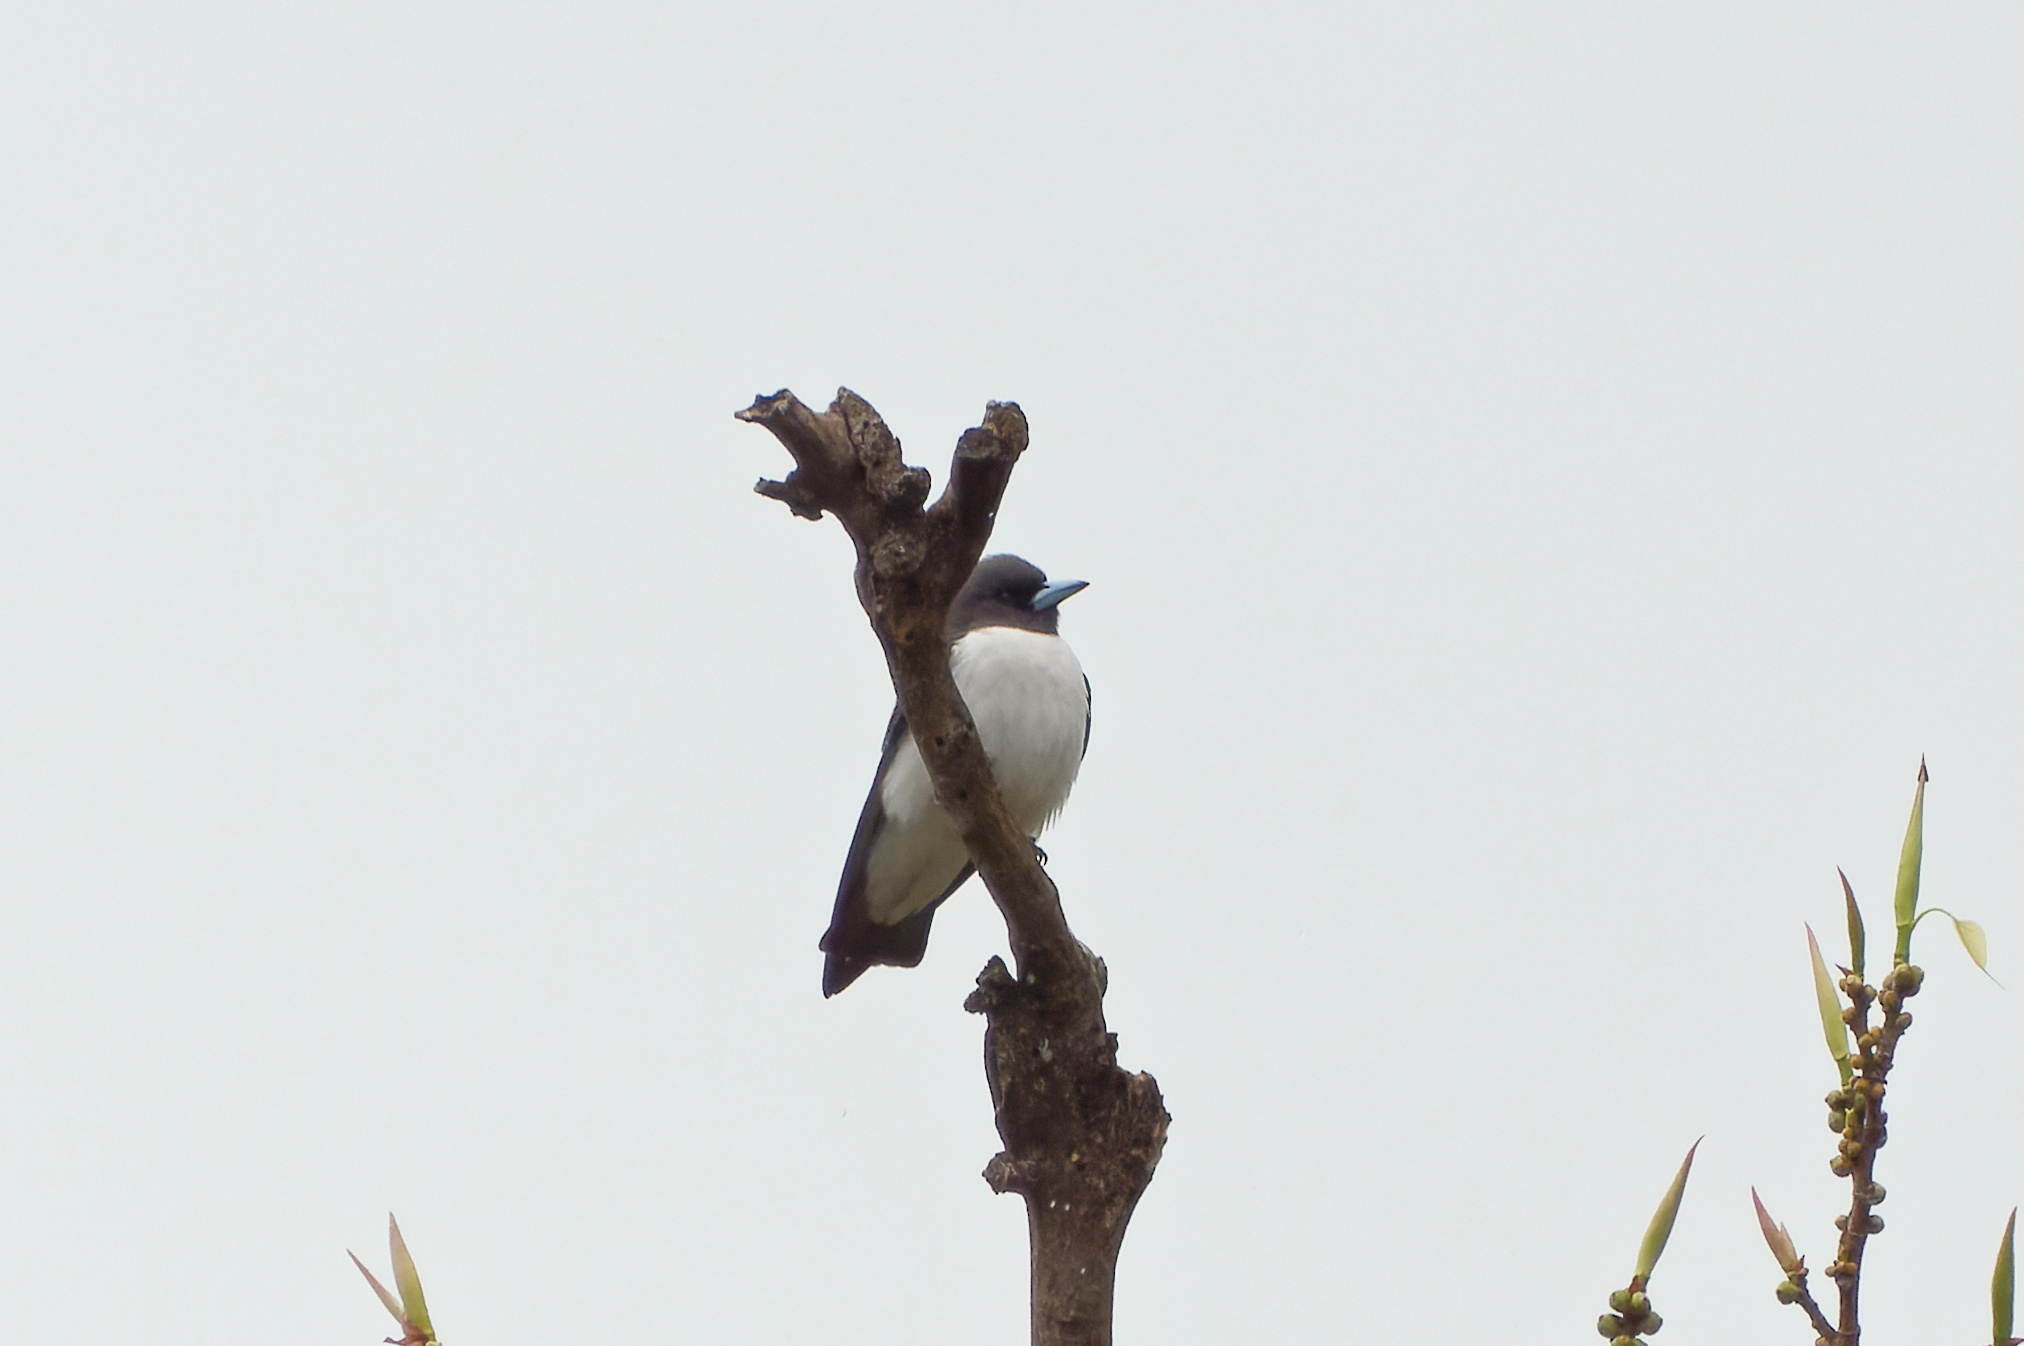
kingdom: Animalia
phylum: Chordata
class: Aves
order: Passeriformes
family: Artamidae
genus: Artamus
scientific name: Artamus leucoryn
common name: White-breasted woodswallow
